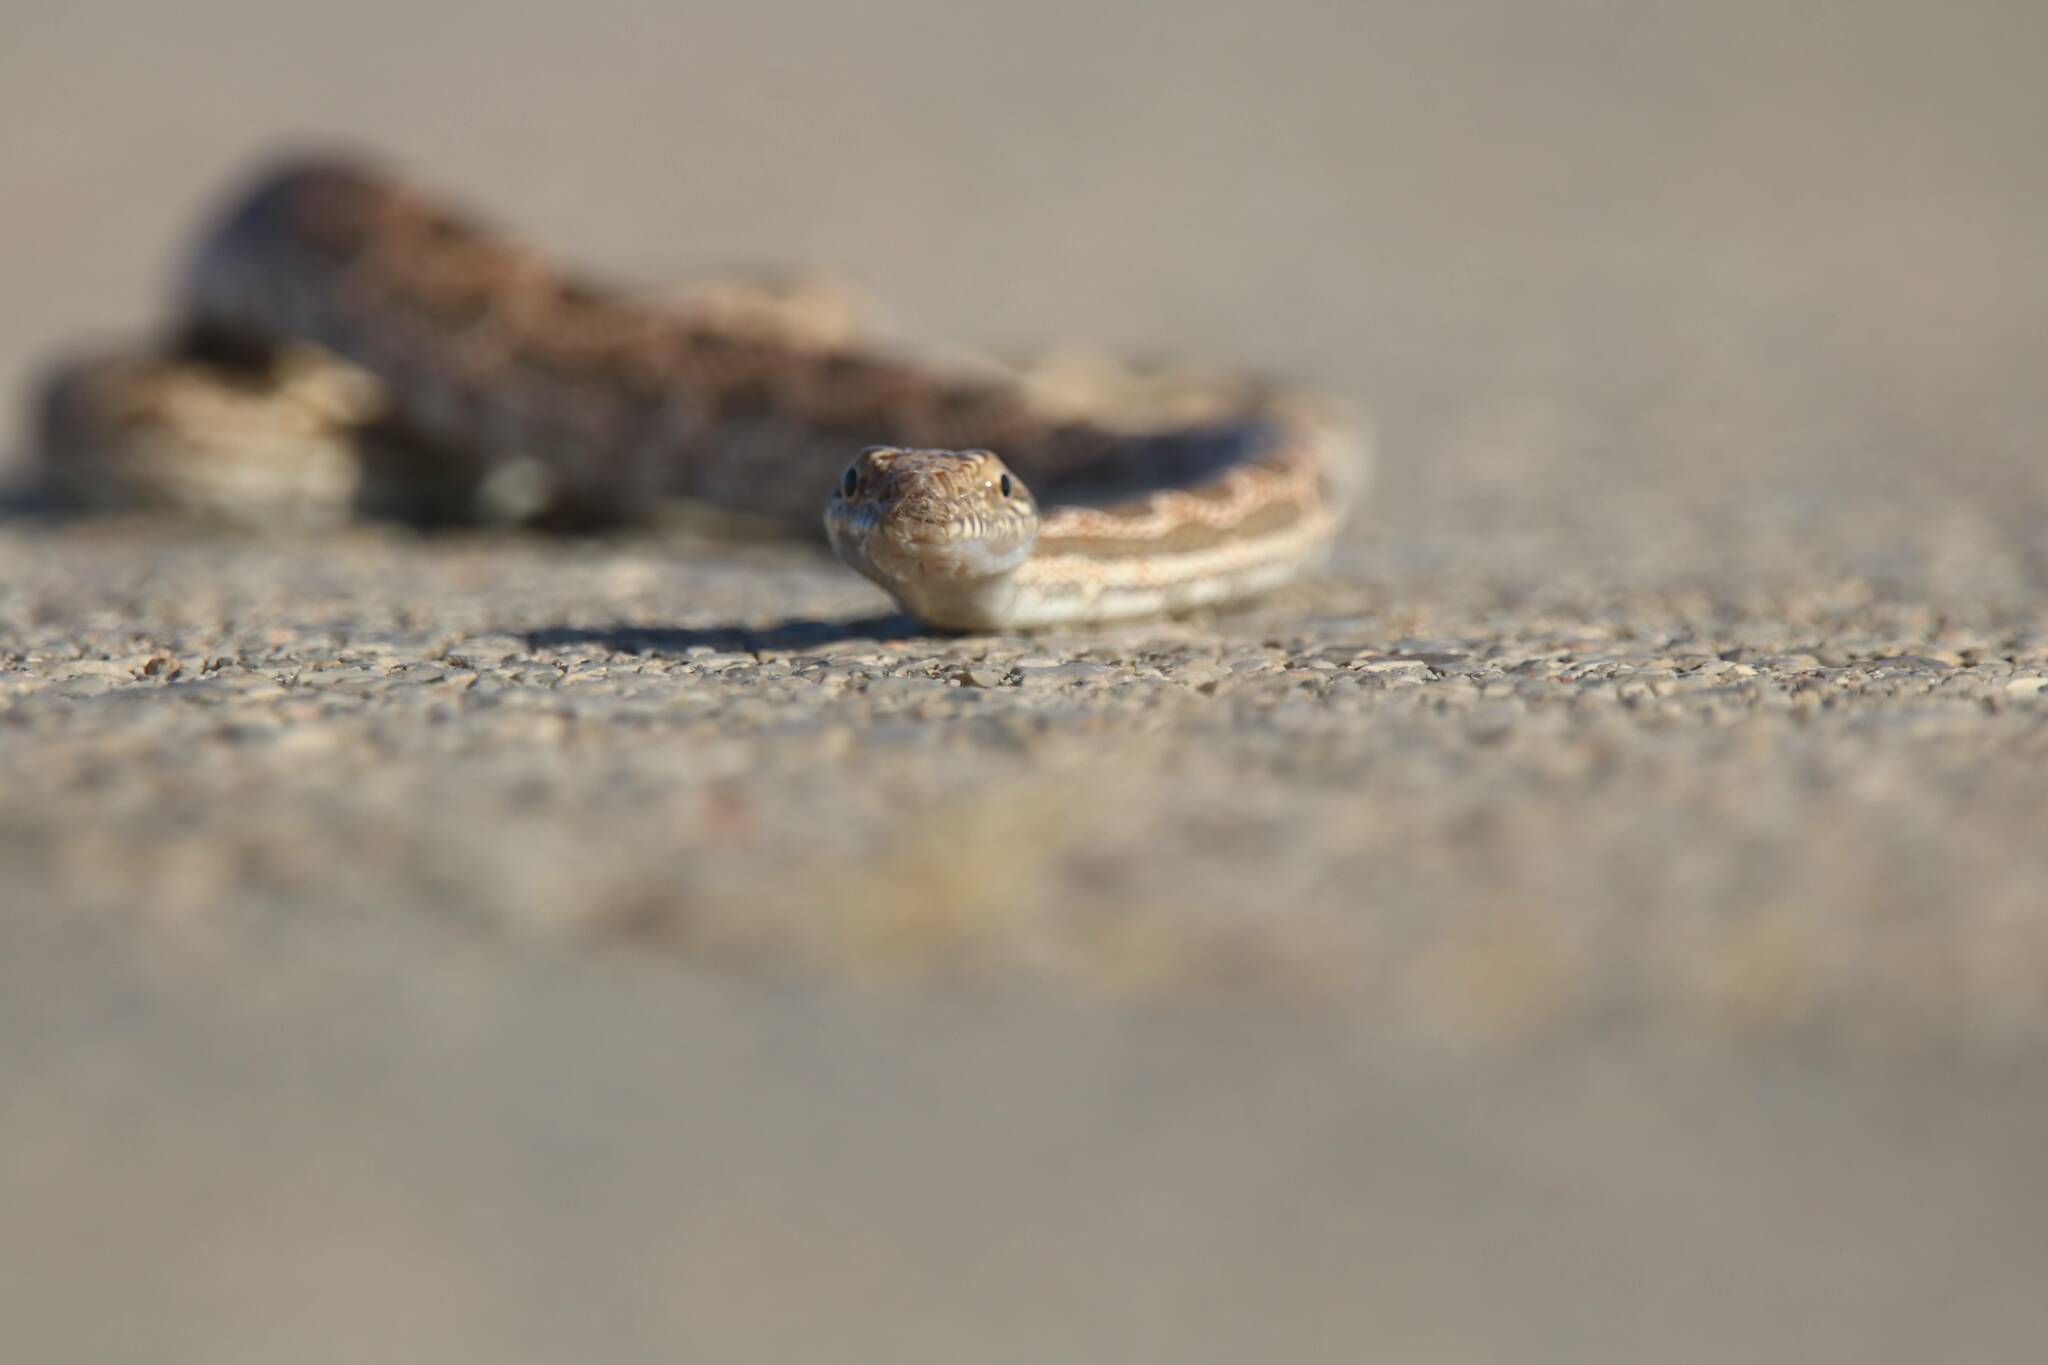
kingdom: Animalia
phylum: Chordata
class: Squamata
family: Colubridae
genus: Spalerosophis
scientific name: Spalerosophis dolichospilus
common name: Mograbin diadem snake
